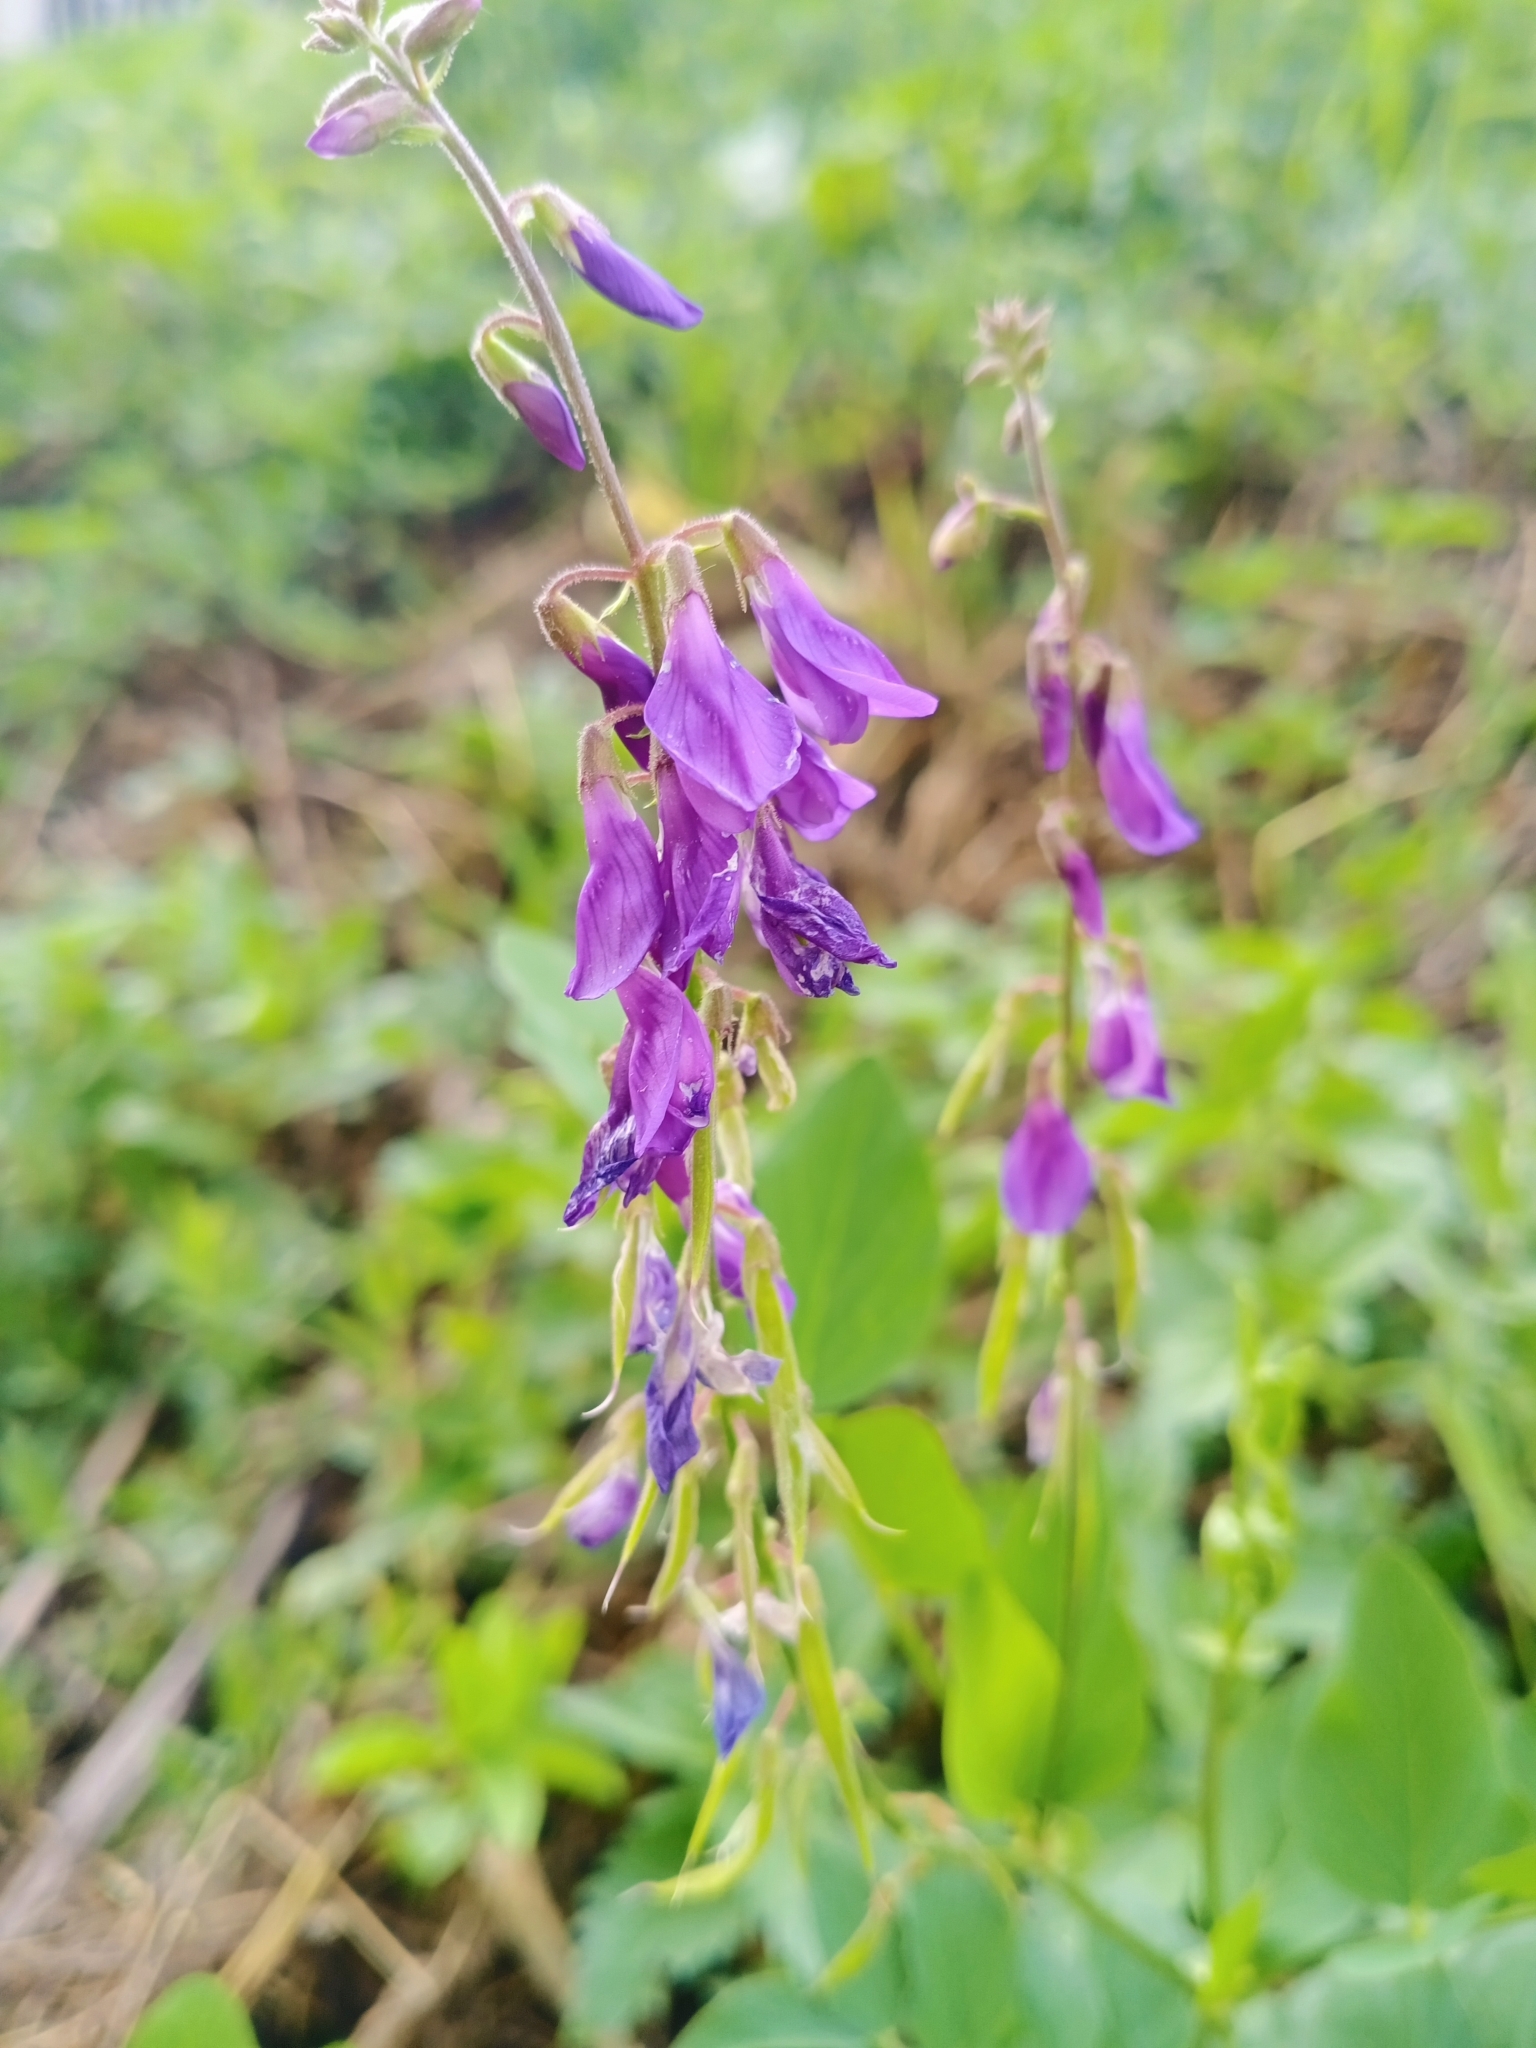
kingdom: Plantae
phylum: Tracheophyta
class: Magnoliopsida
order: Fabales
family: Fabaceae
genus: Galega
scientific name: Galega orientalis
